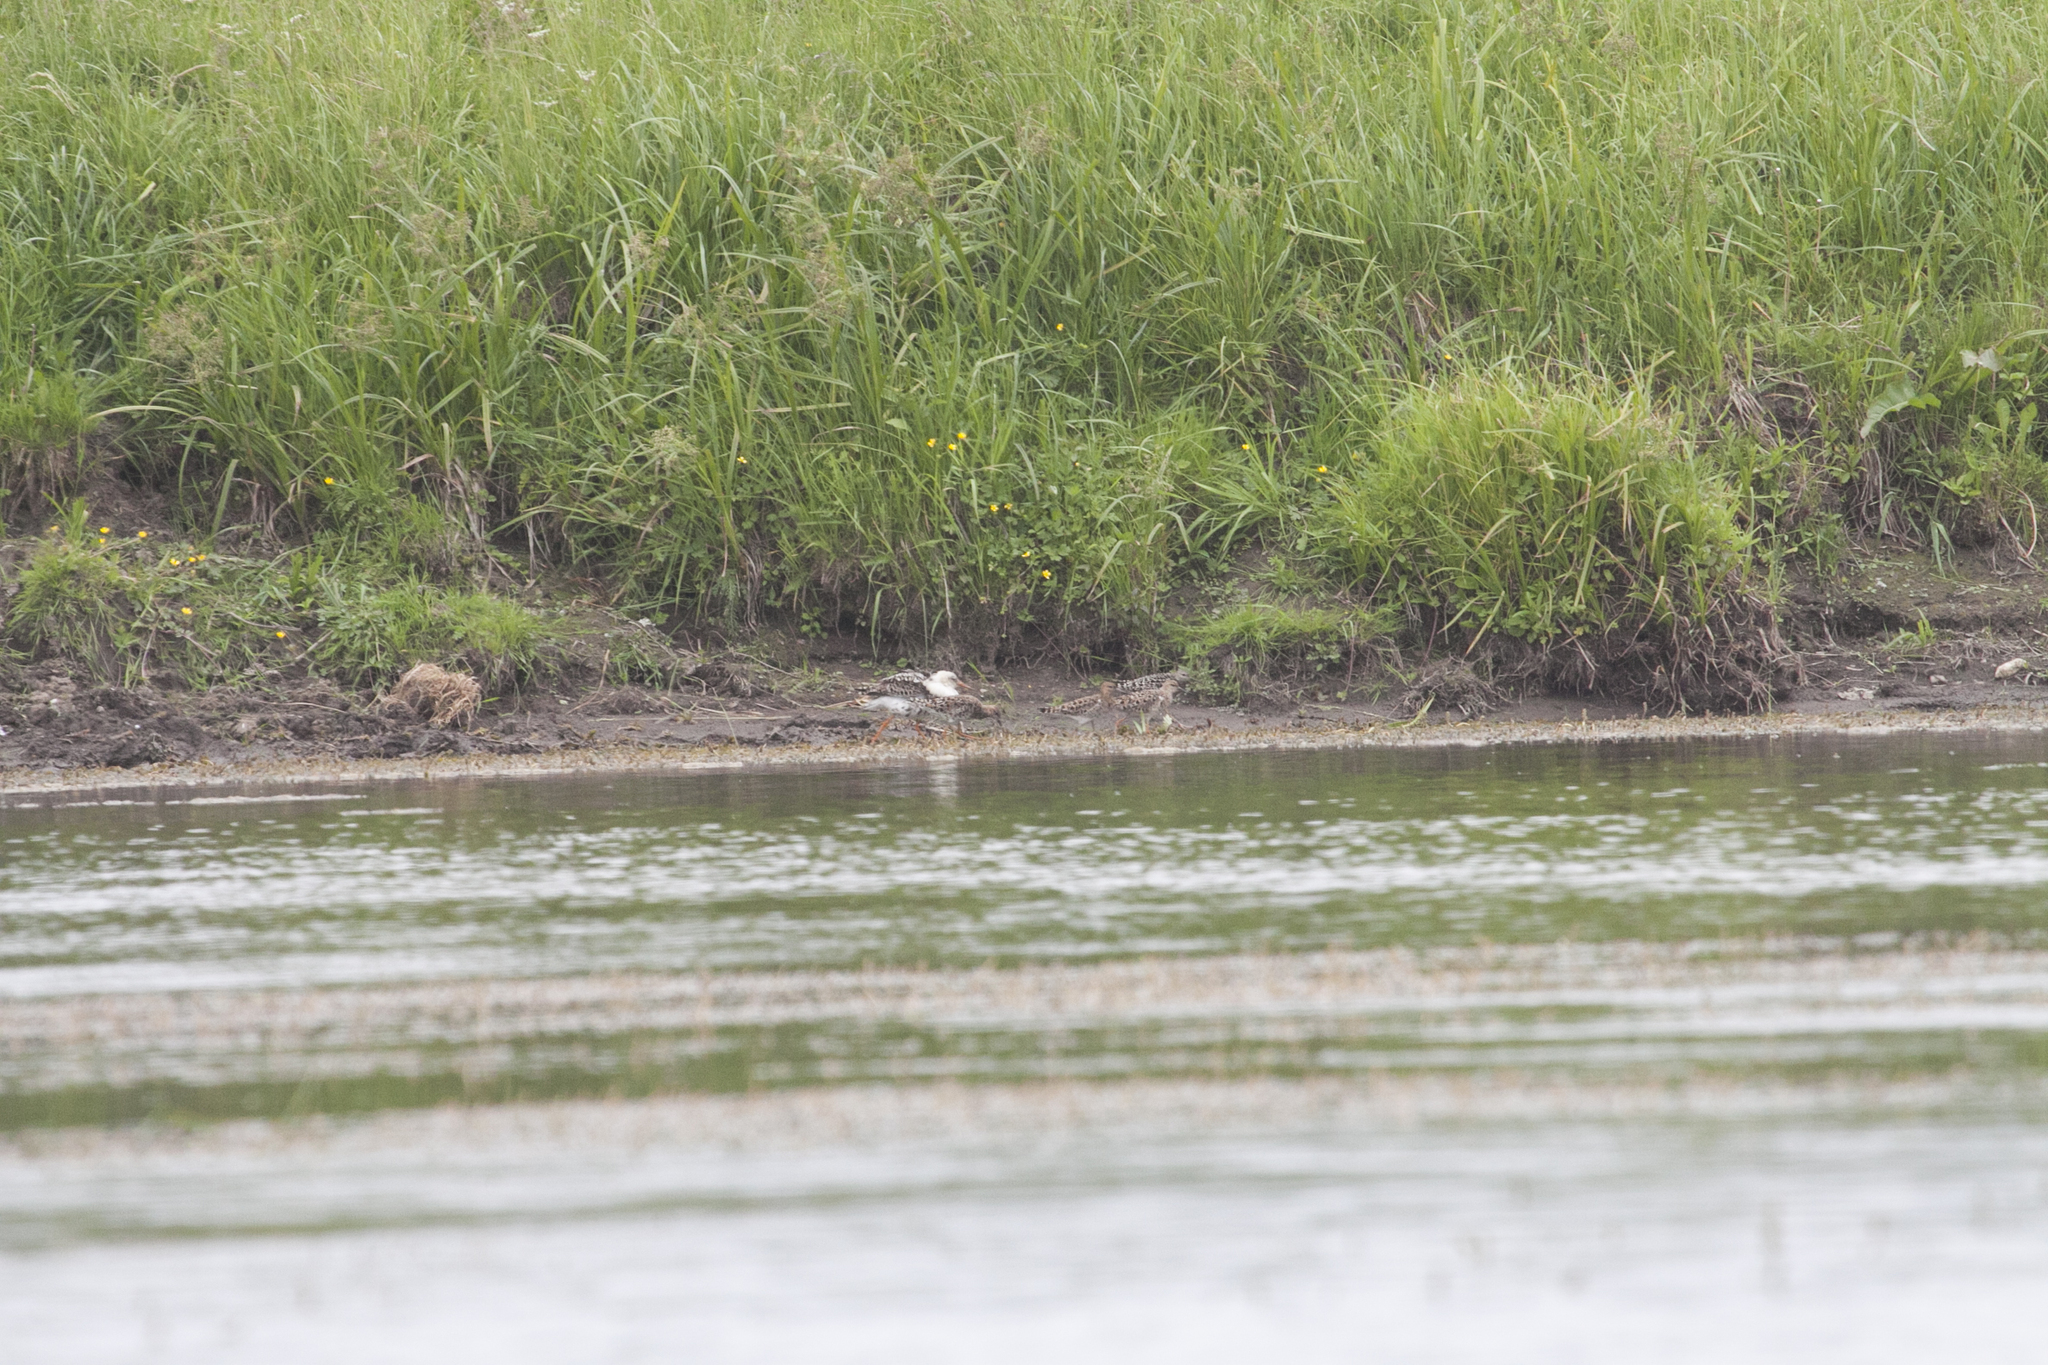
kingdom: Animalia
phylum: Chordata
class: Aves
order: Charadriiformes
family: Scolopacidae
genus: Calidris
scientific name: Calidris pugnax
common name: Ruff
